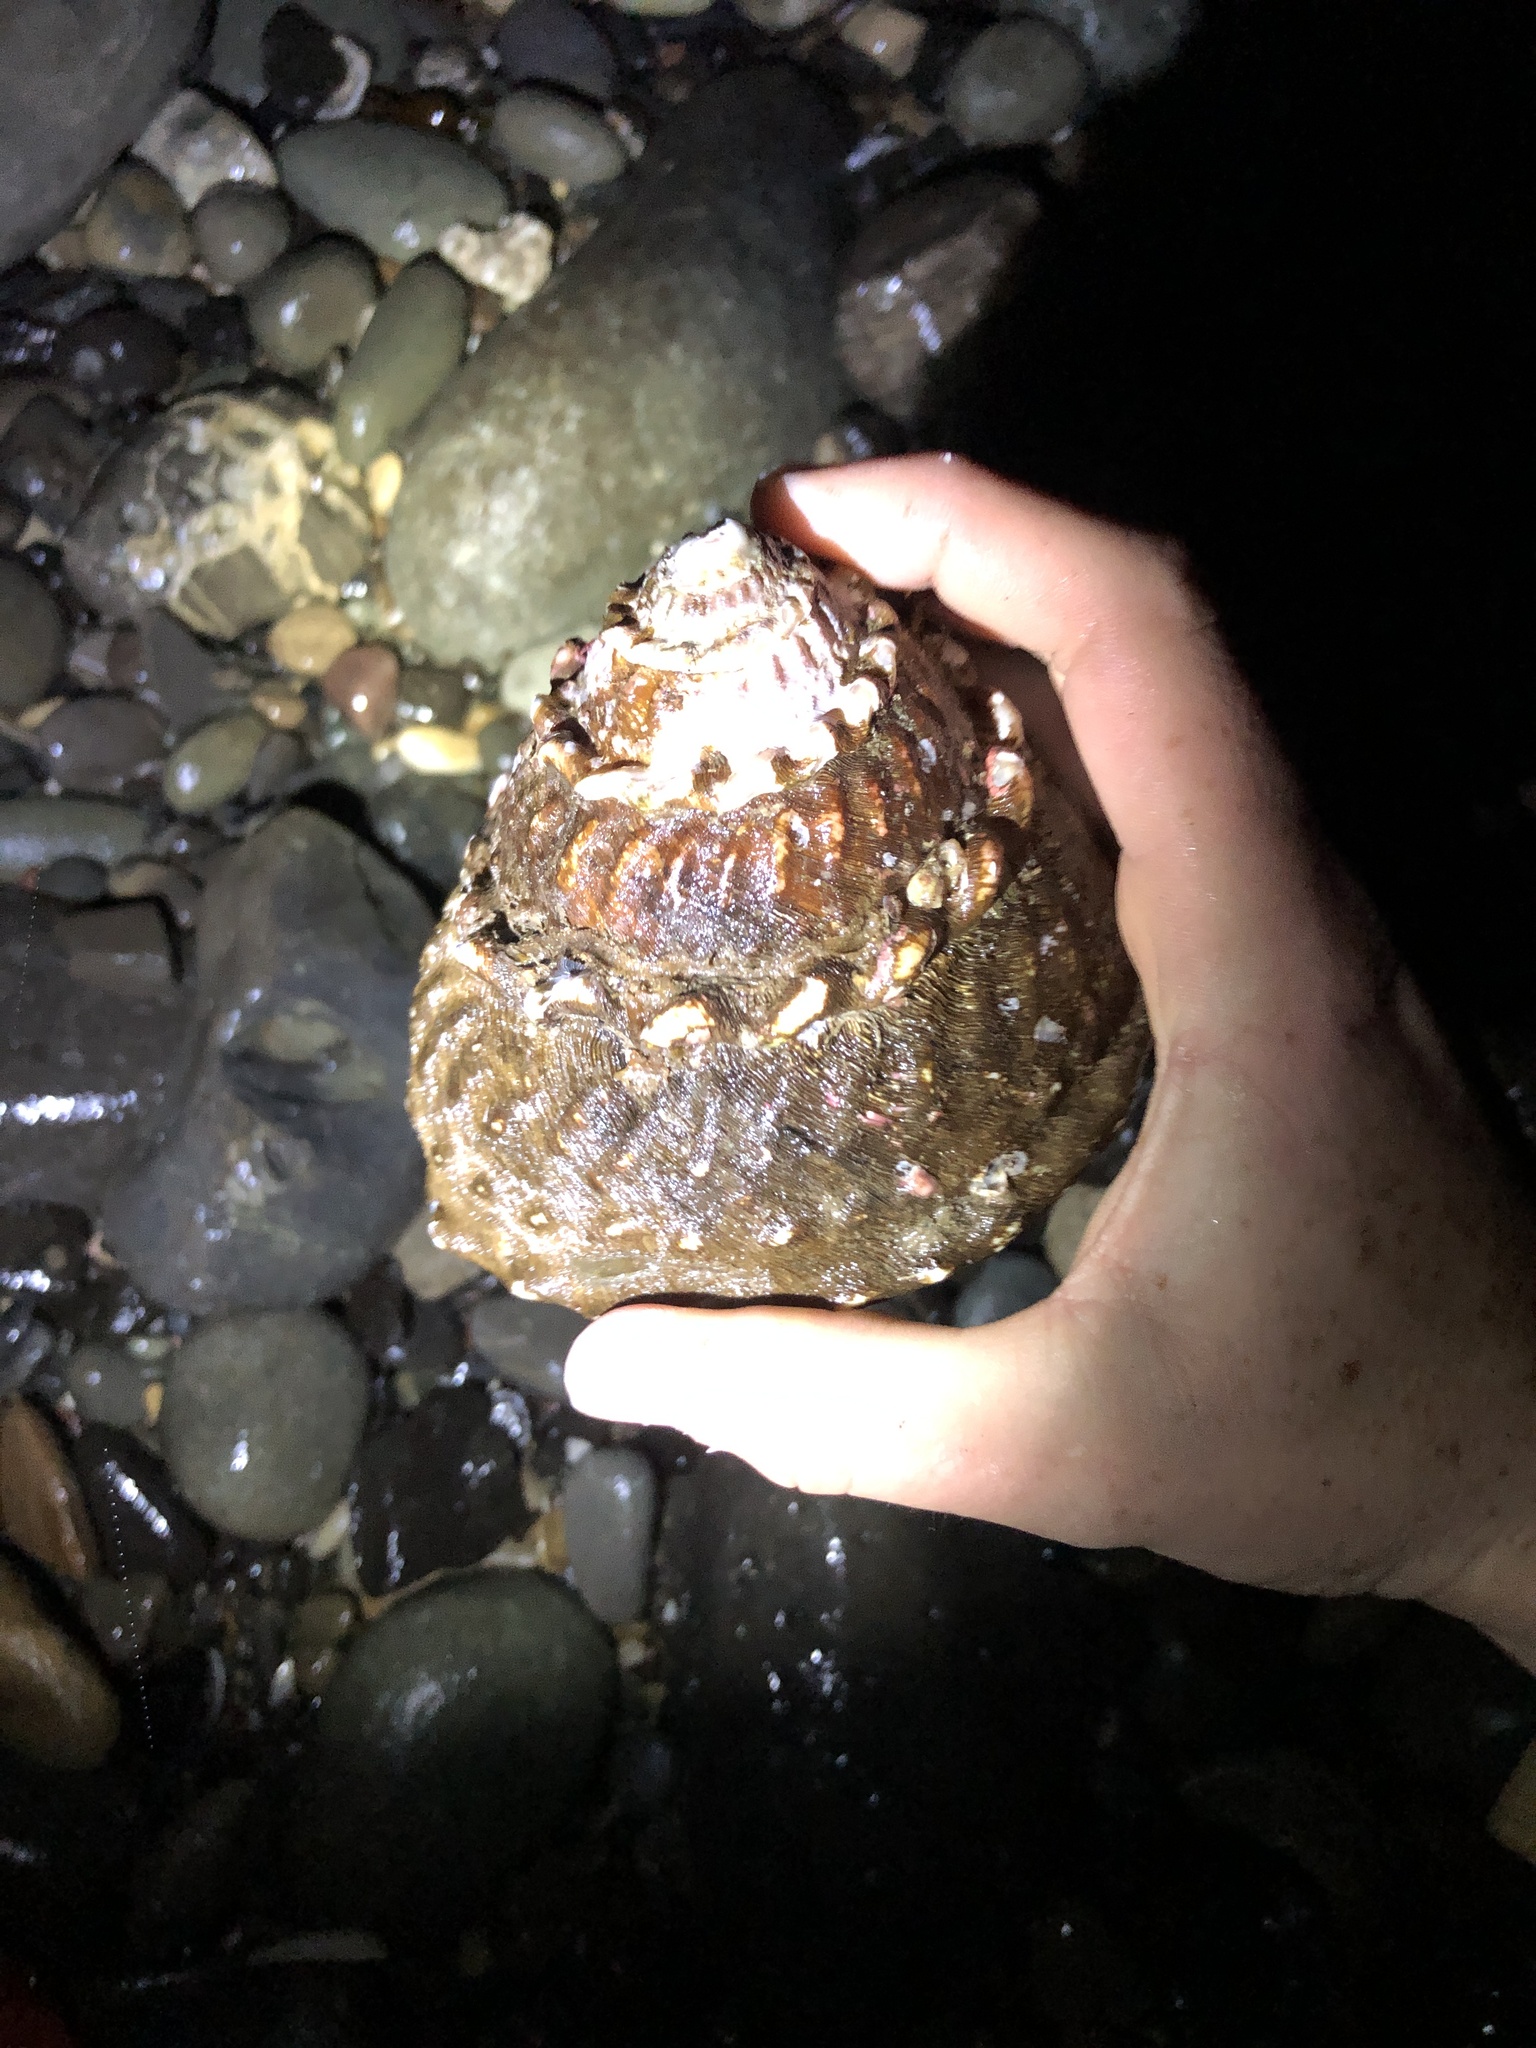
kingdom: Animalia
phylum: Mollusca
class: Gastropoda
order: Trochida
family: Turbinidae
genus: Megastraea
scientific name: Megastraea undosa
